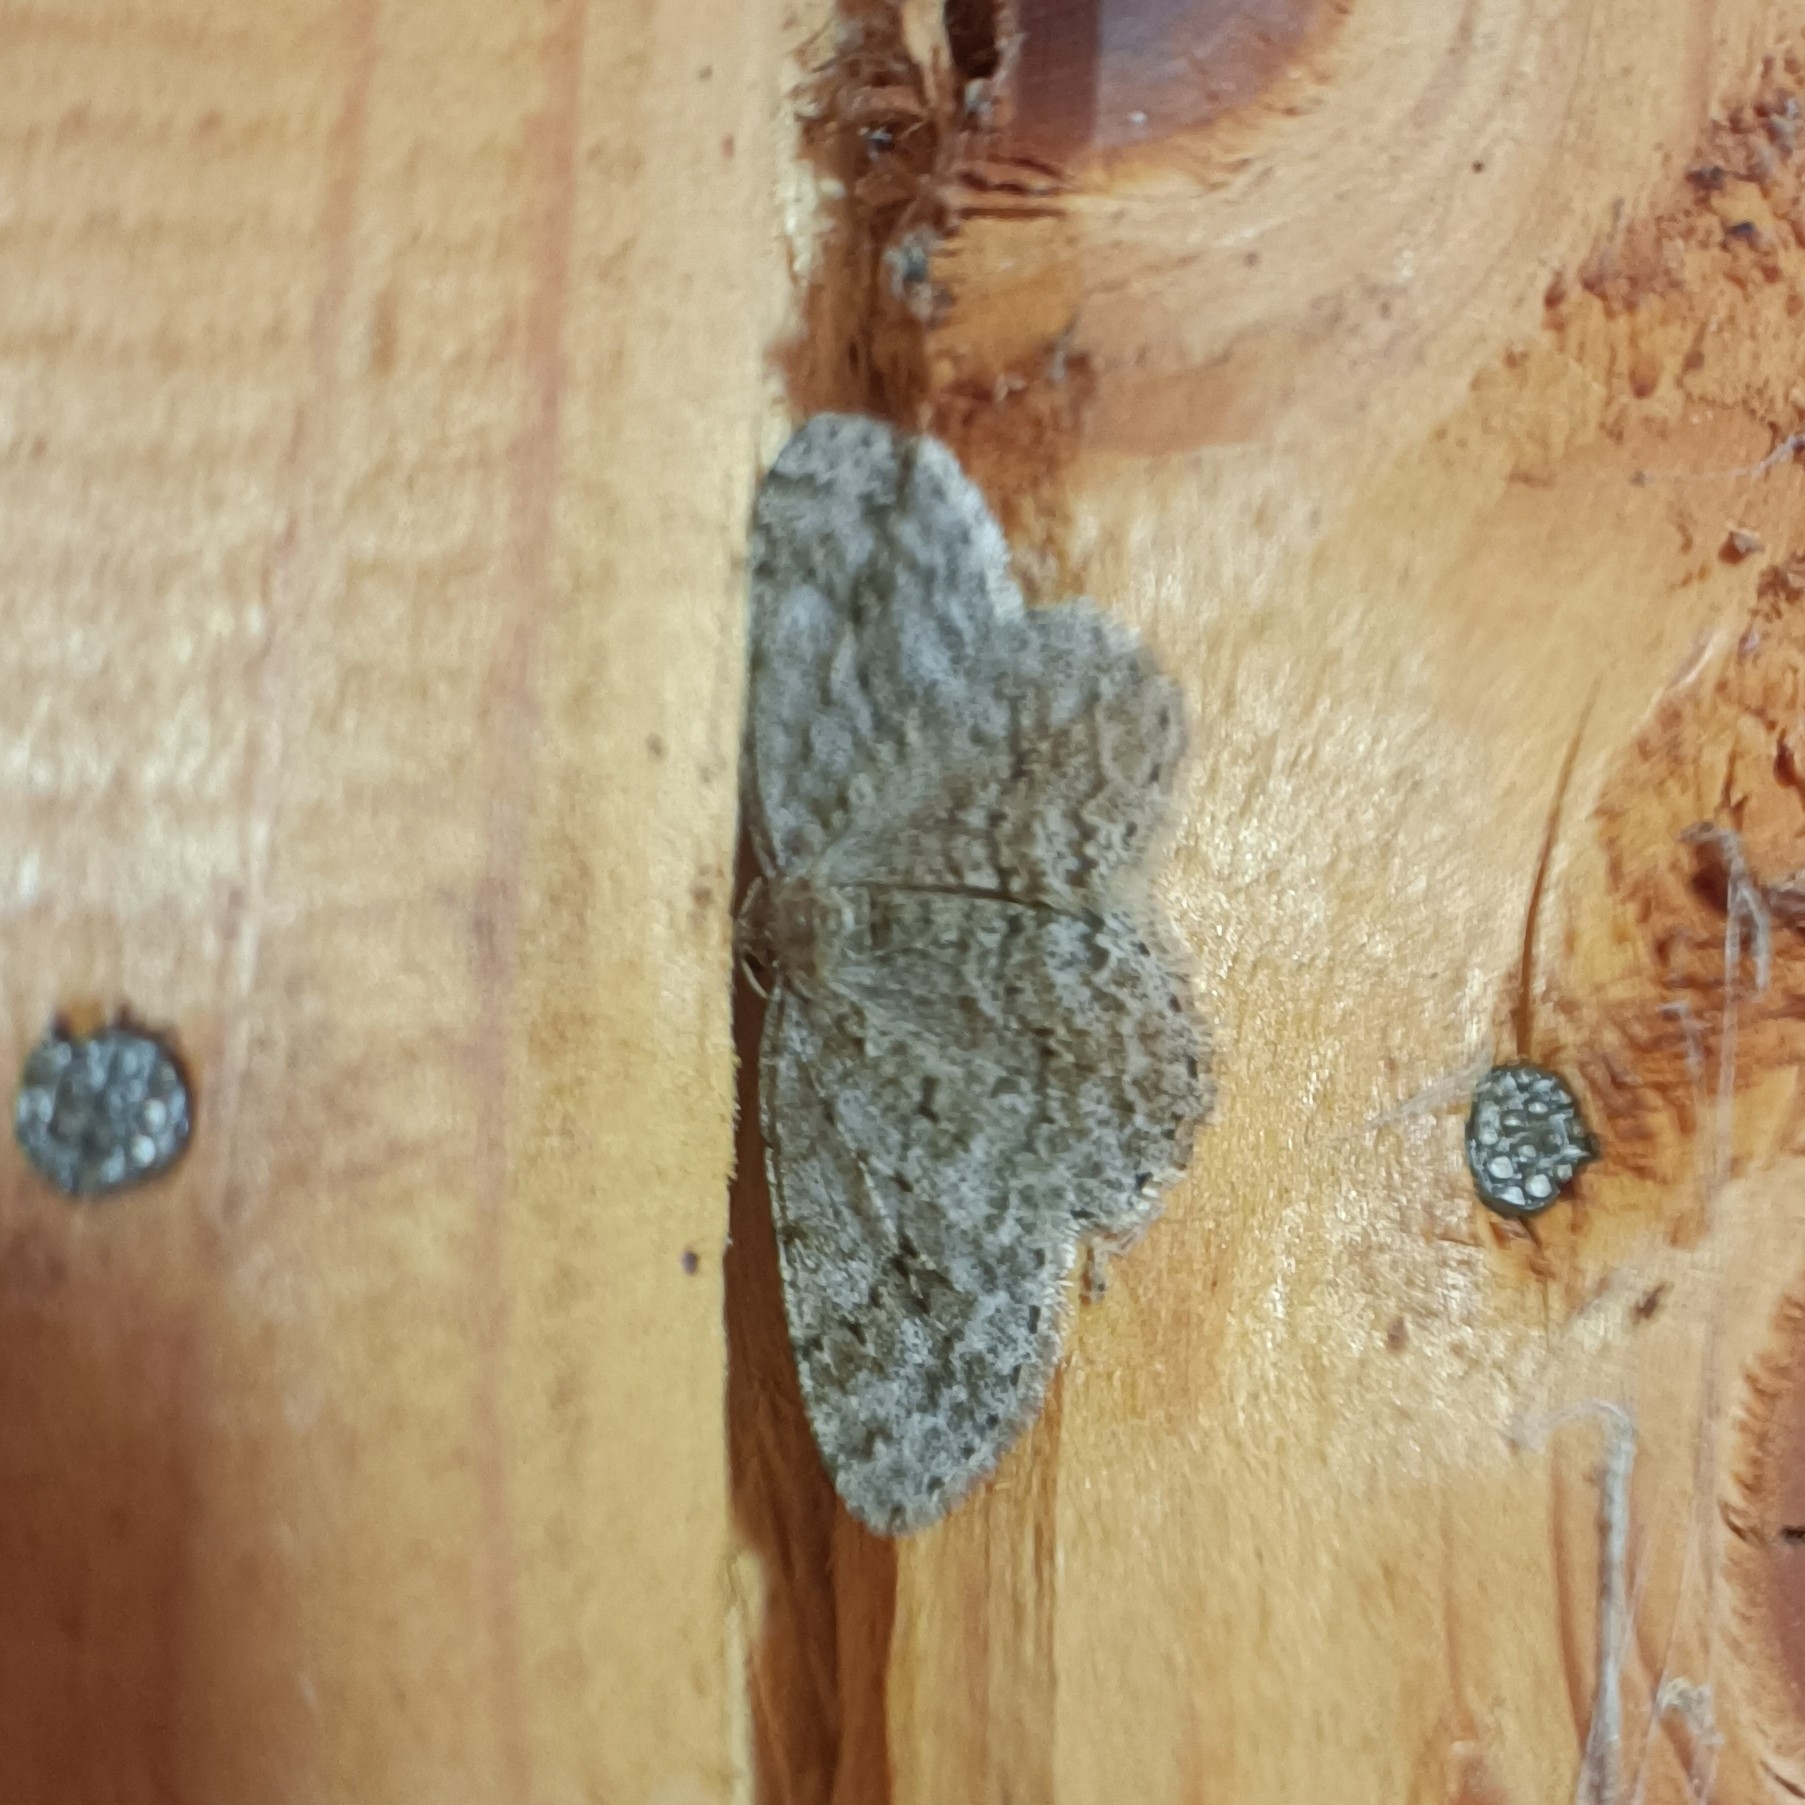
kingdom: Animalia
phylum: Arthropoda
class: Insecta
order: Lepidoptera
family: Geometridae
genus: Ectropis
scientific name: Ectropis crepuscularia
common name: Engrailed
